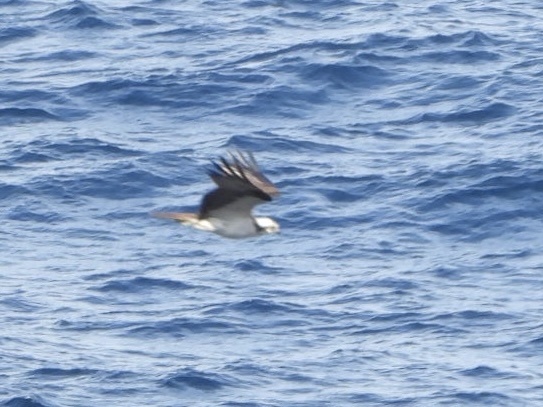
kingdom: Animalia
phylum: Chordata
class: Aves
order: Accipitriformes
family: Pandionidae
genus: Pandion
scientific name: Pandion haliaetus
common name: Osprey
